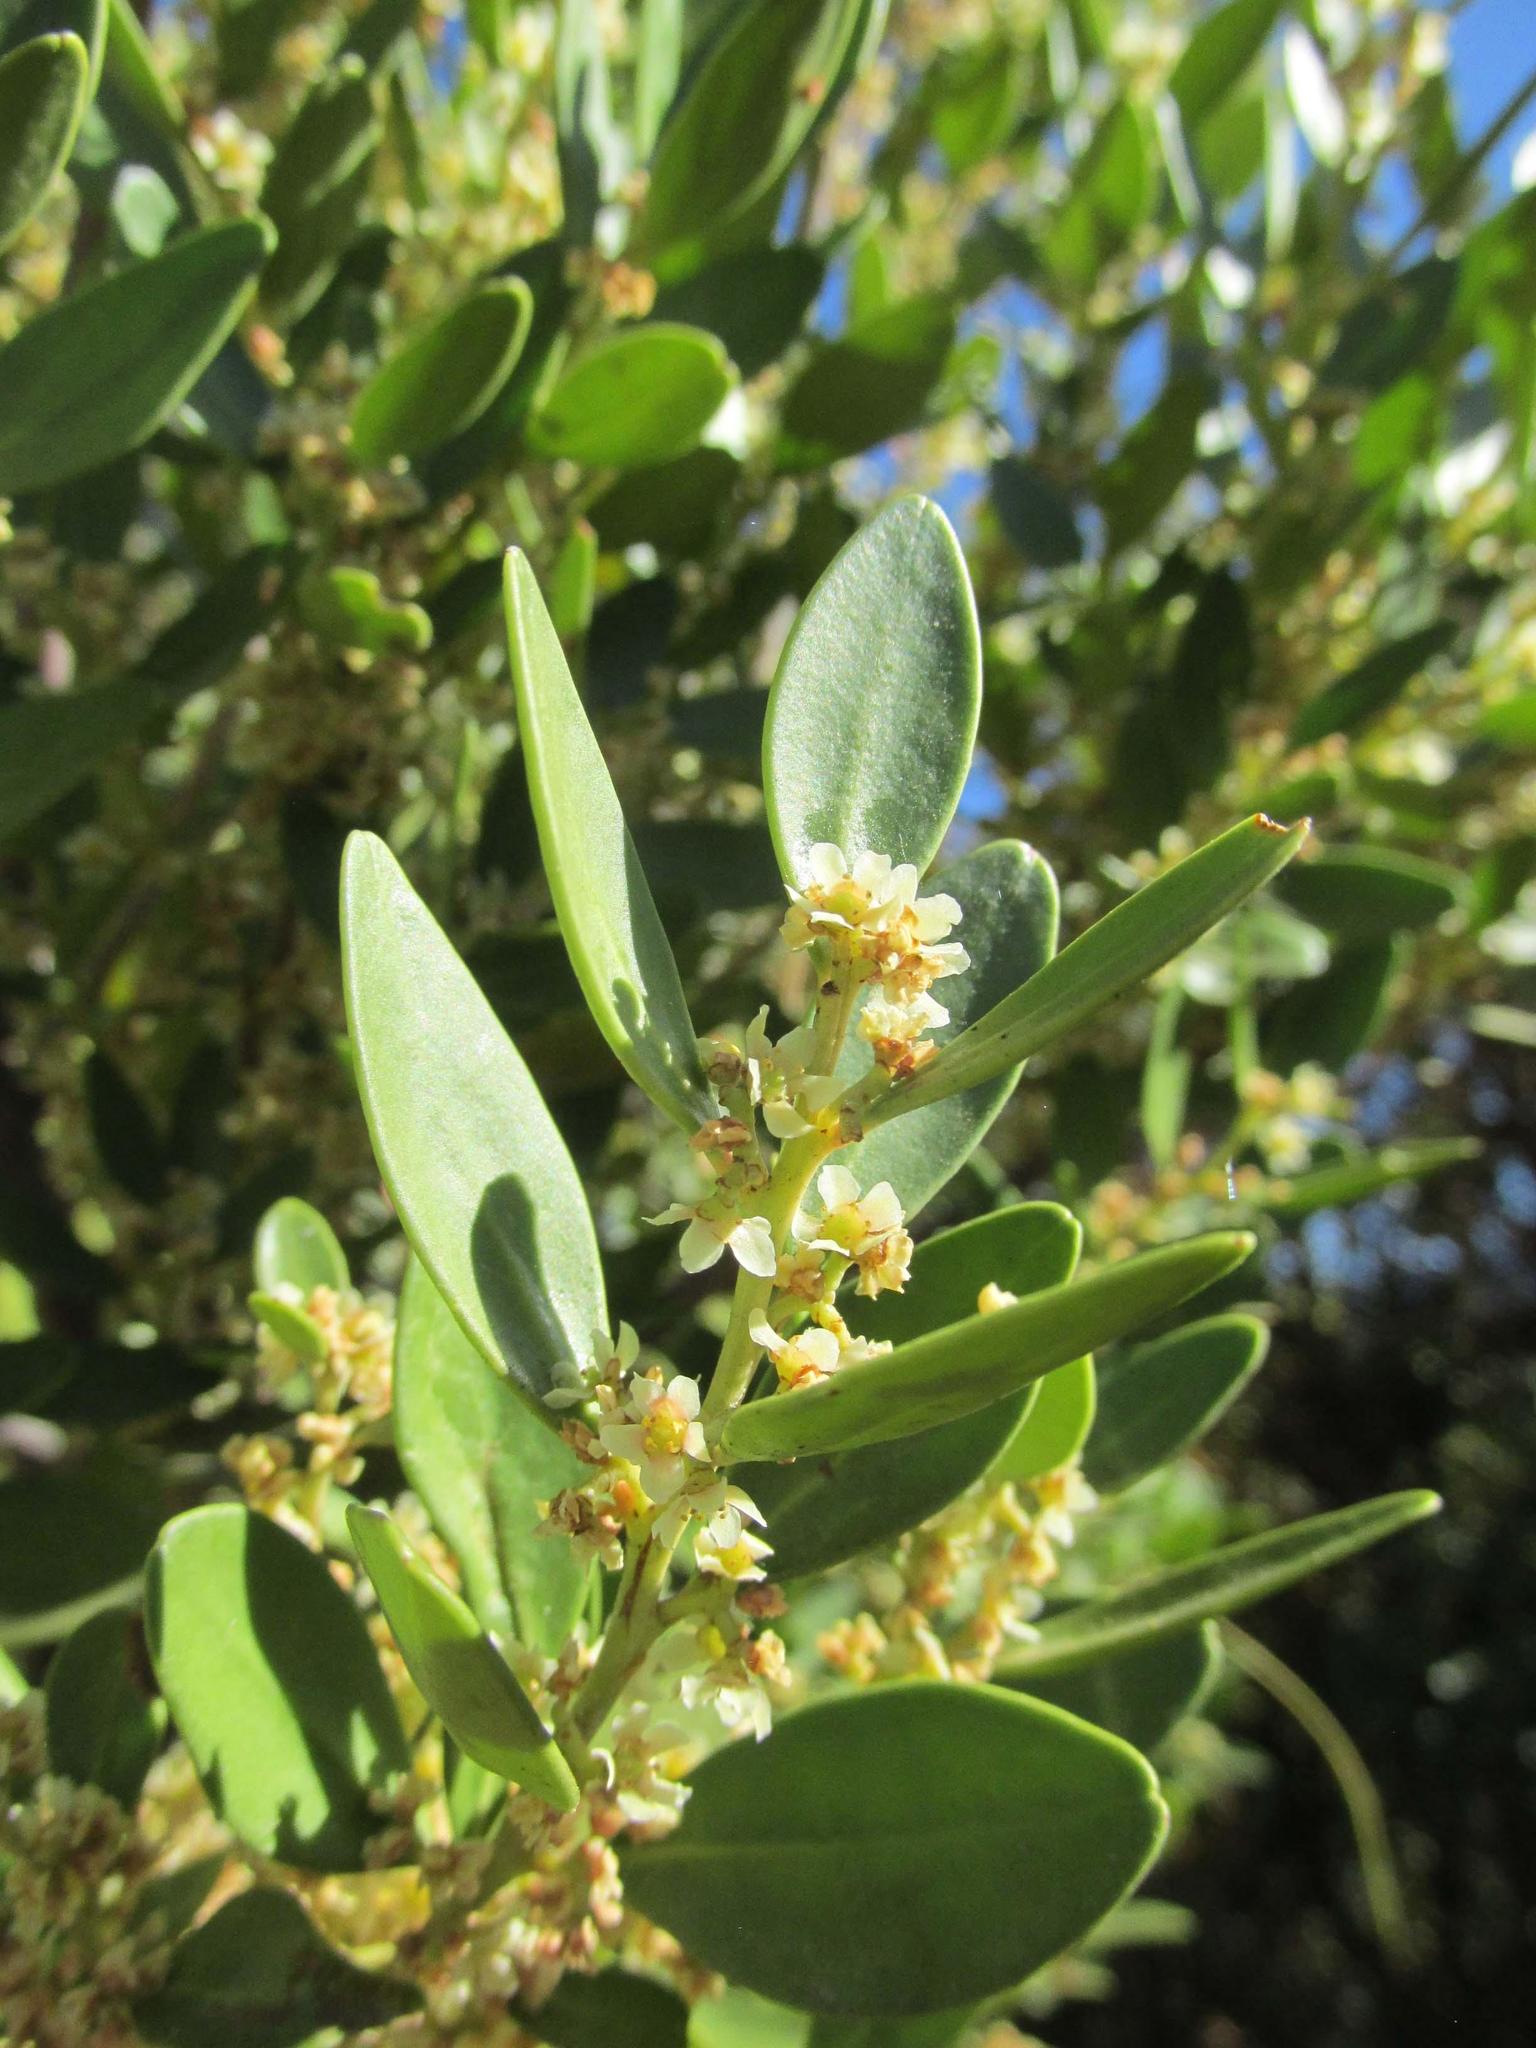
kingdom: Plantae
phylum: Tracheophyta
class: Magnoliopsida
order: Celastrales
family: Celastraceae
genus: Gymnosporia
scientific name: Gymnosporia laurina
